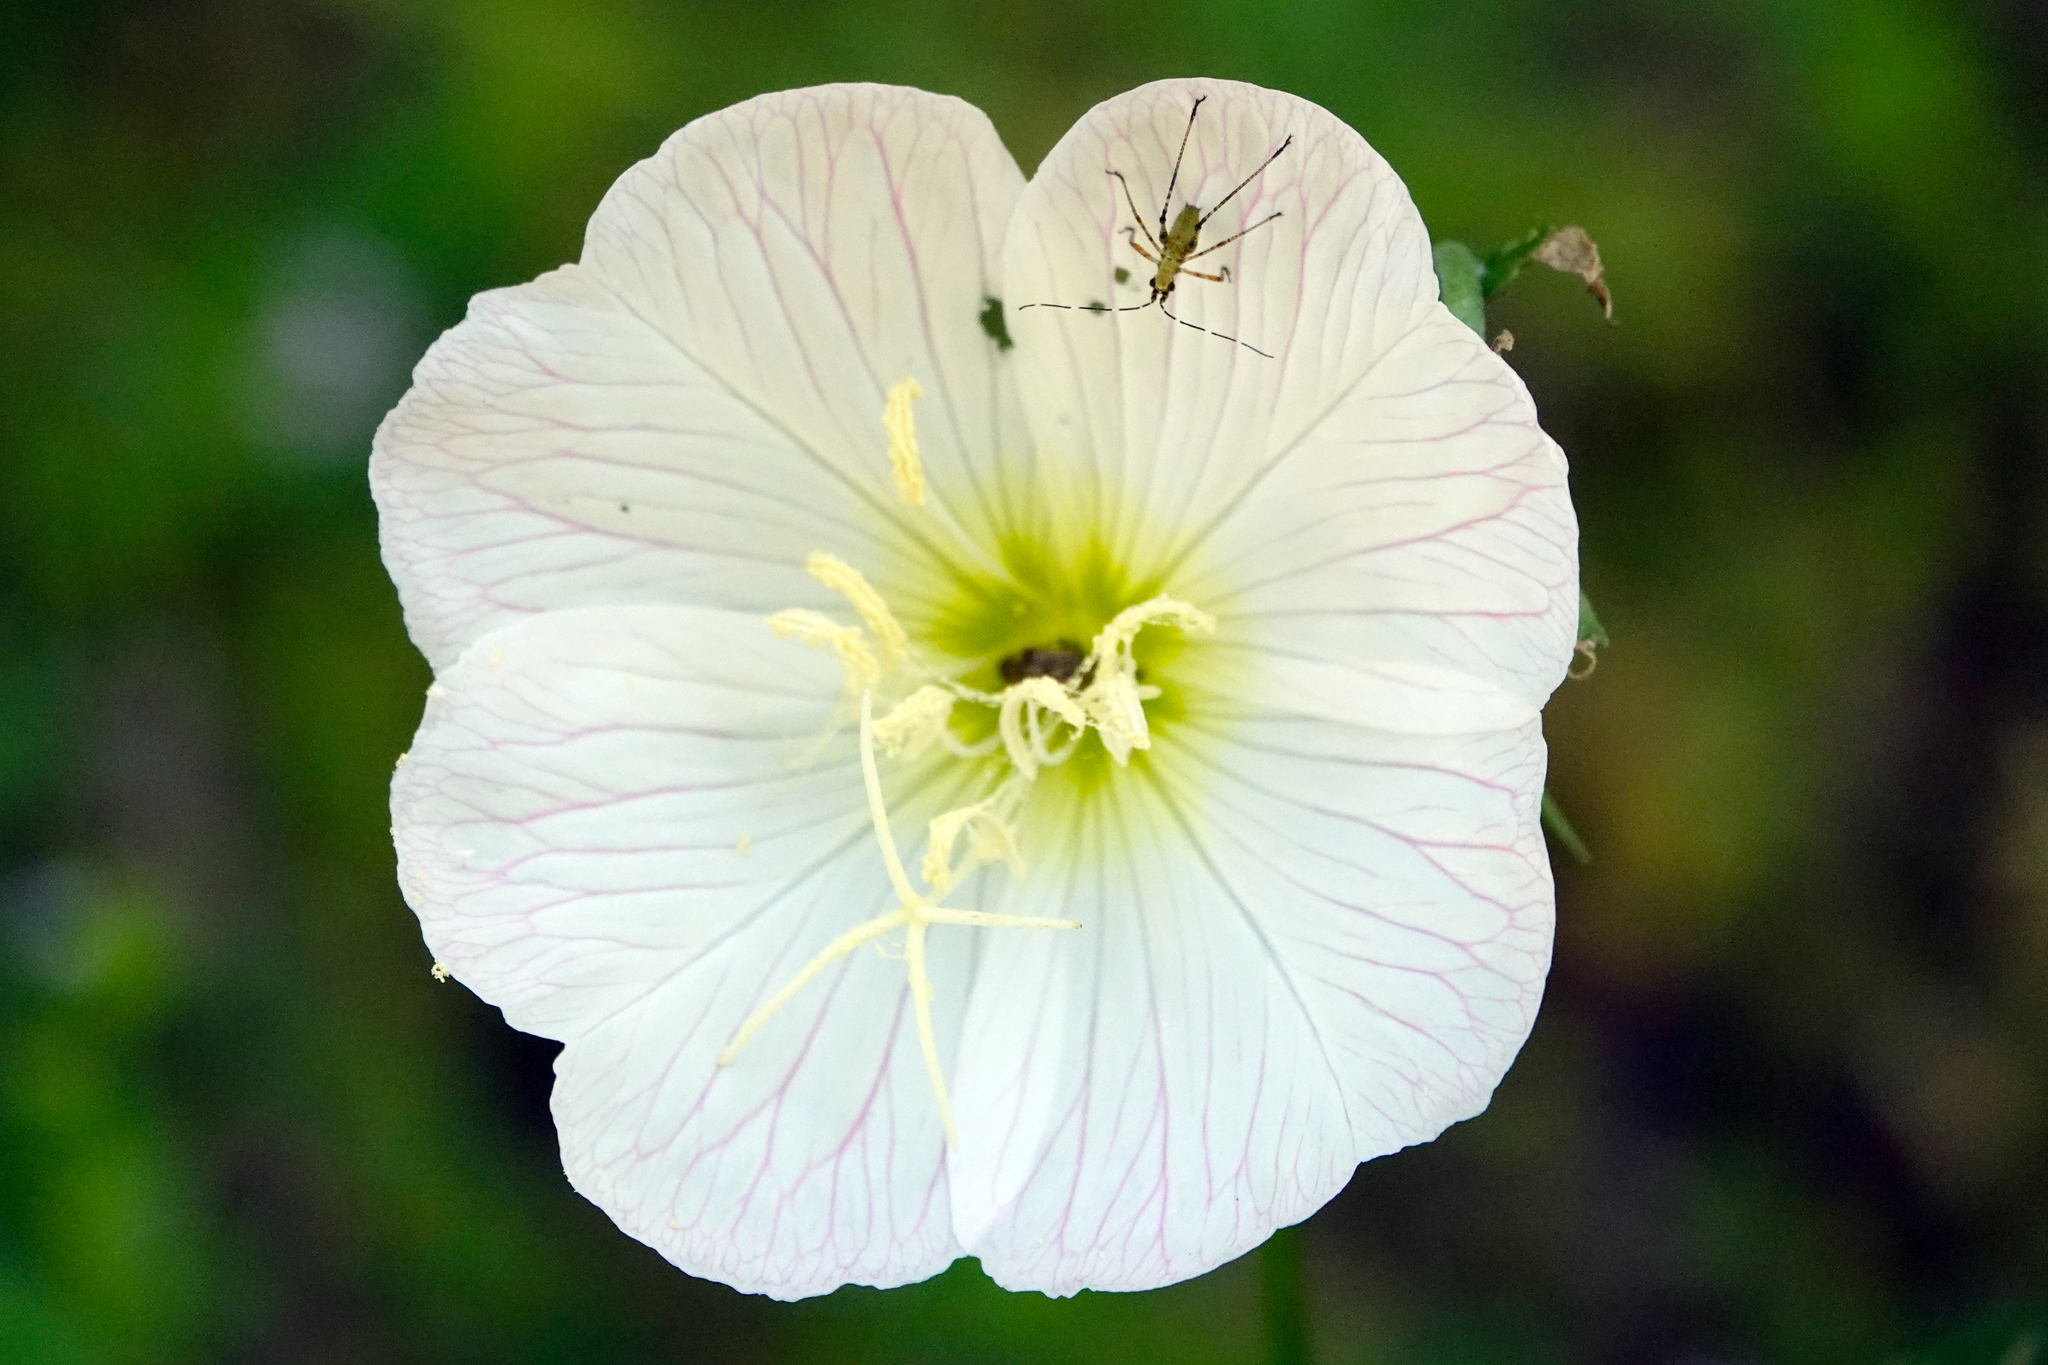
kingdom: Plantae
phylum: Tracheophyta
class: Magnoliopsida
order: Myrtales
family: Onagraceae
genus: Oenothera
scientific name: Oenothera speciosa
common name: White evening-primrose
